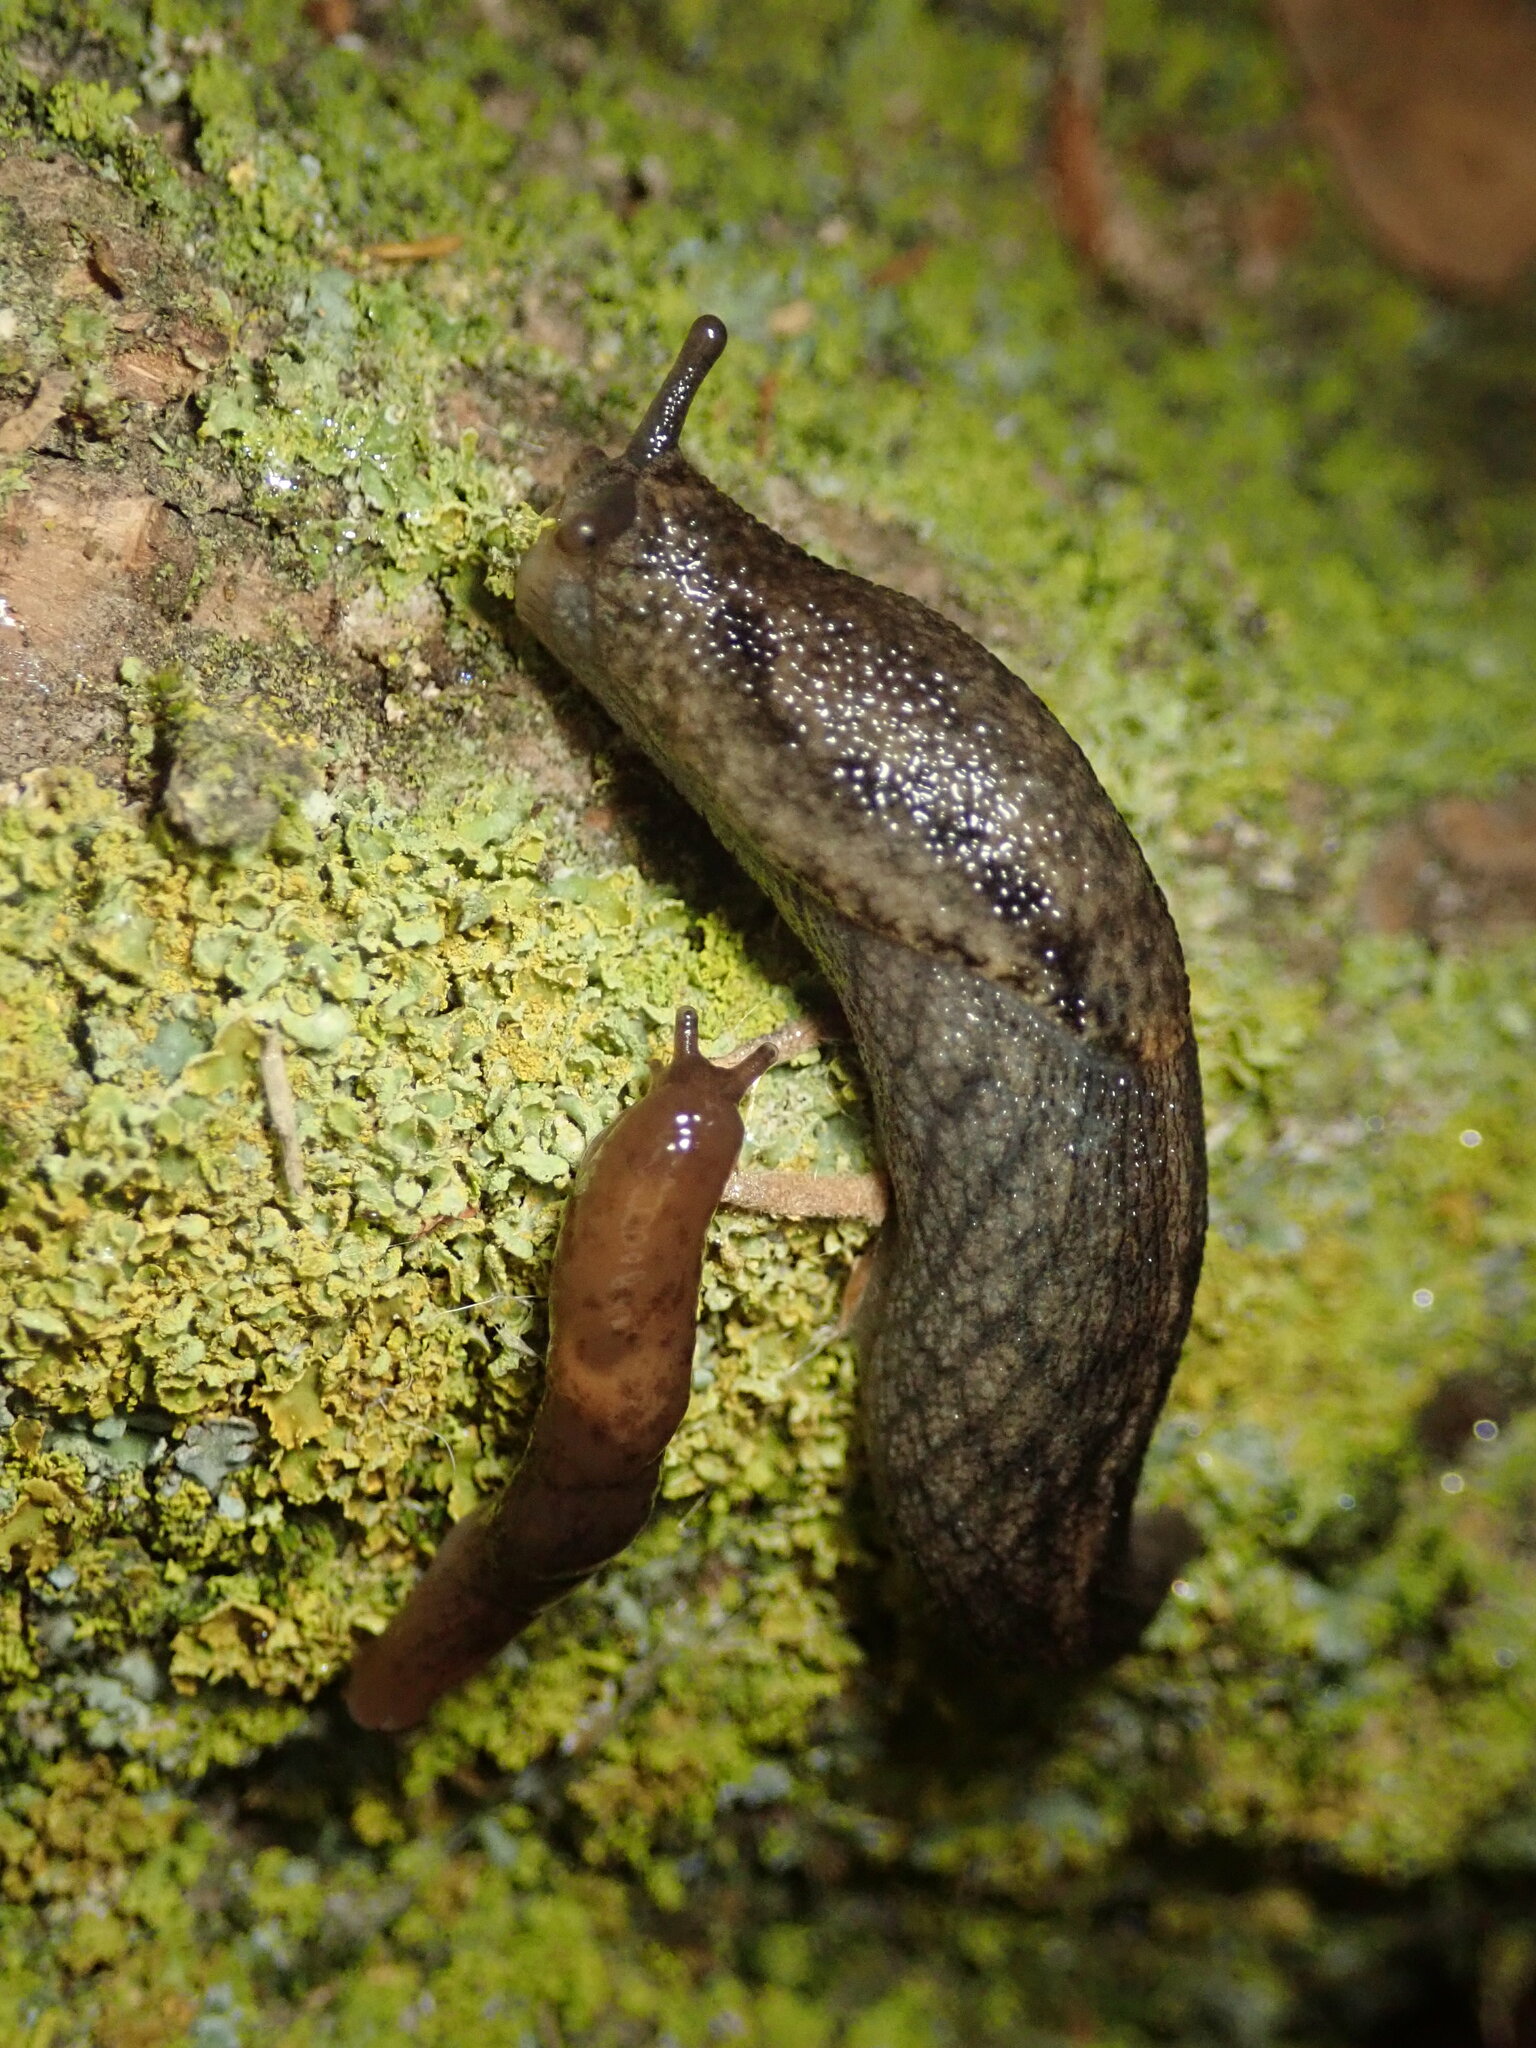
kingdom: Animalia
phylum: Mollusca
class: Gastropoda
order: Stylommatophora
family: Ariolimacidae
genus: Prophysaon
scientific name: Prophysaon andersonii
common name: Reticulate taildropper
